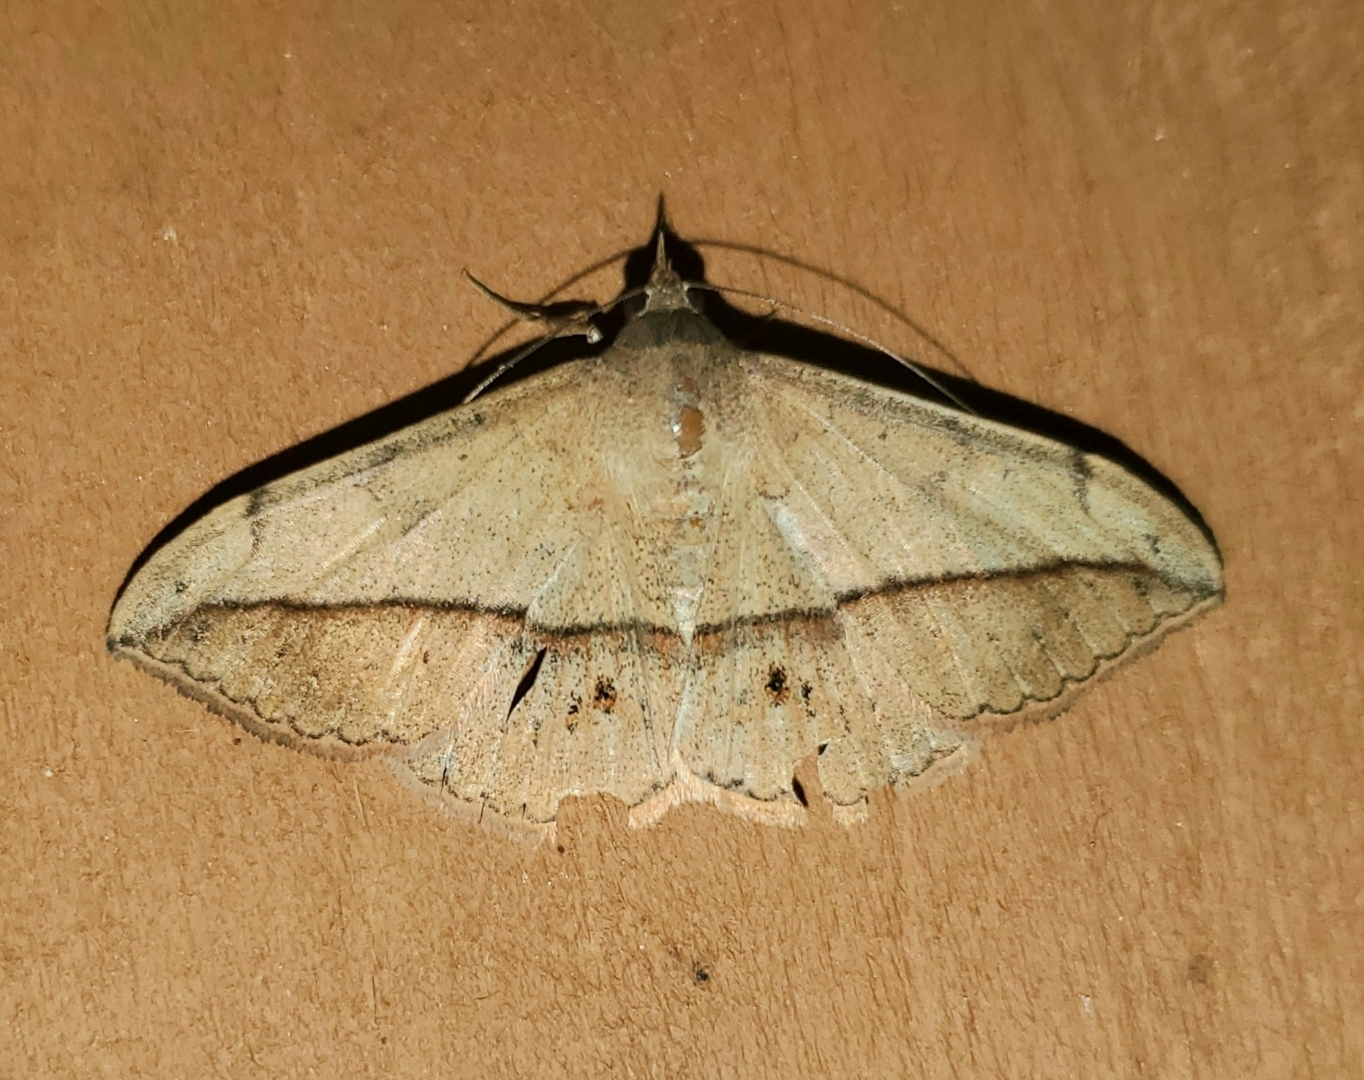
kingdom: Animalia
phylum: Arthropoda
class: Insecta
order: Lepidoptera
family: Erebidae
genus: Anticarsia
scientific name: Anticarsia gemmatalis
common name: Cutworm moth
